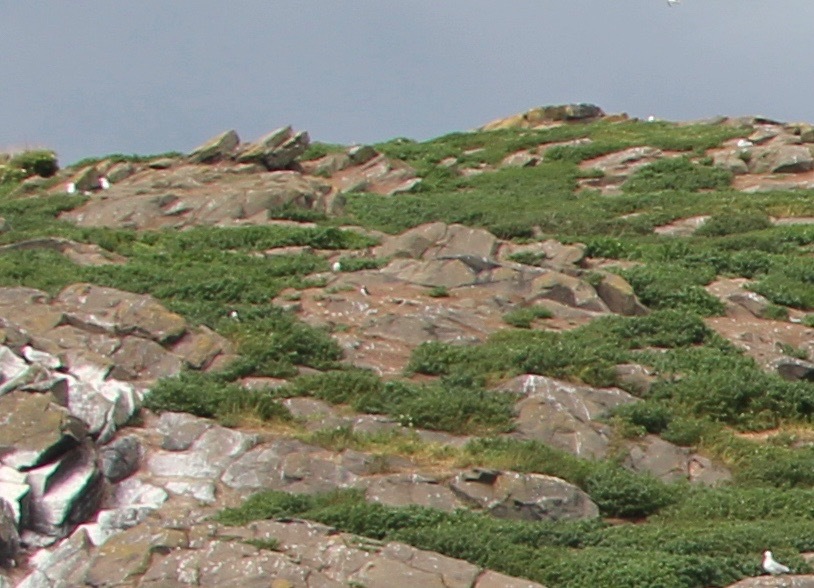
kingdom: Animalia
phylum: Chordata
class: Aves
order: Charadriiformes
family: Alcidae
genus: Fratercula
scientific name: Fratercula arctica
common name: Atlantic puffin
